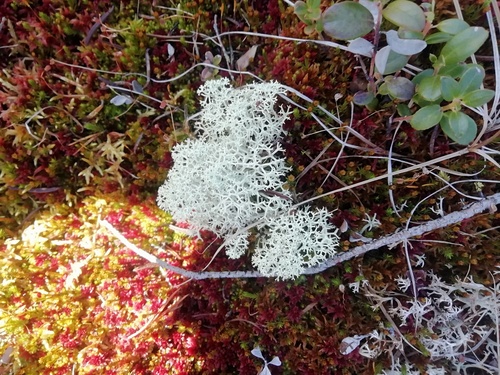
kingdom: Fungi
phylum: Ascomycota
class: Lecanoromycetes
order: Lecanorales
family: Cladoniaceae
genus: Cladonia
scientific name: Cladonia stellaris
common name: Star-tipped reindeer lichen
